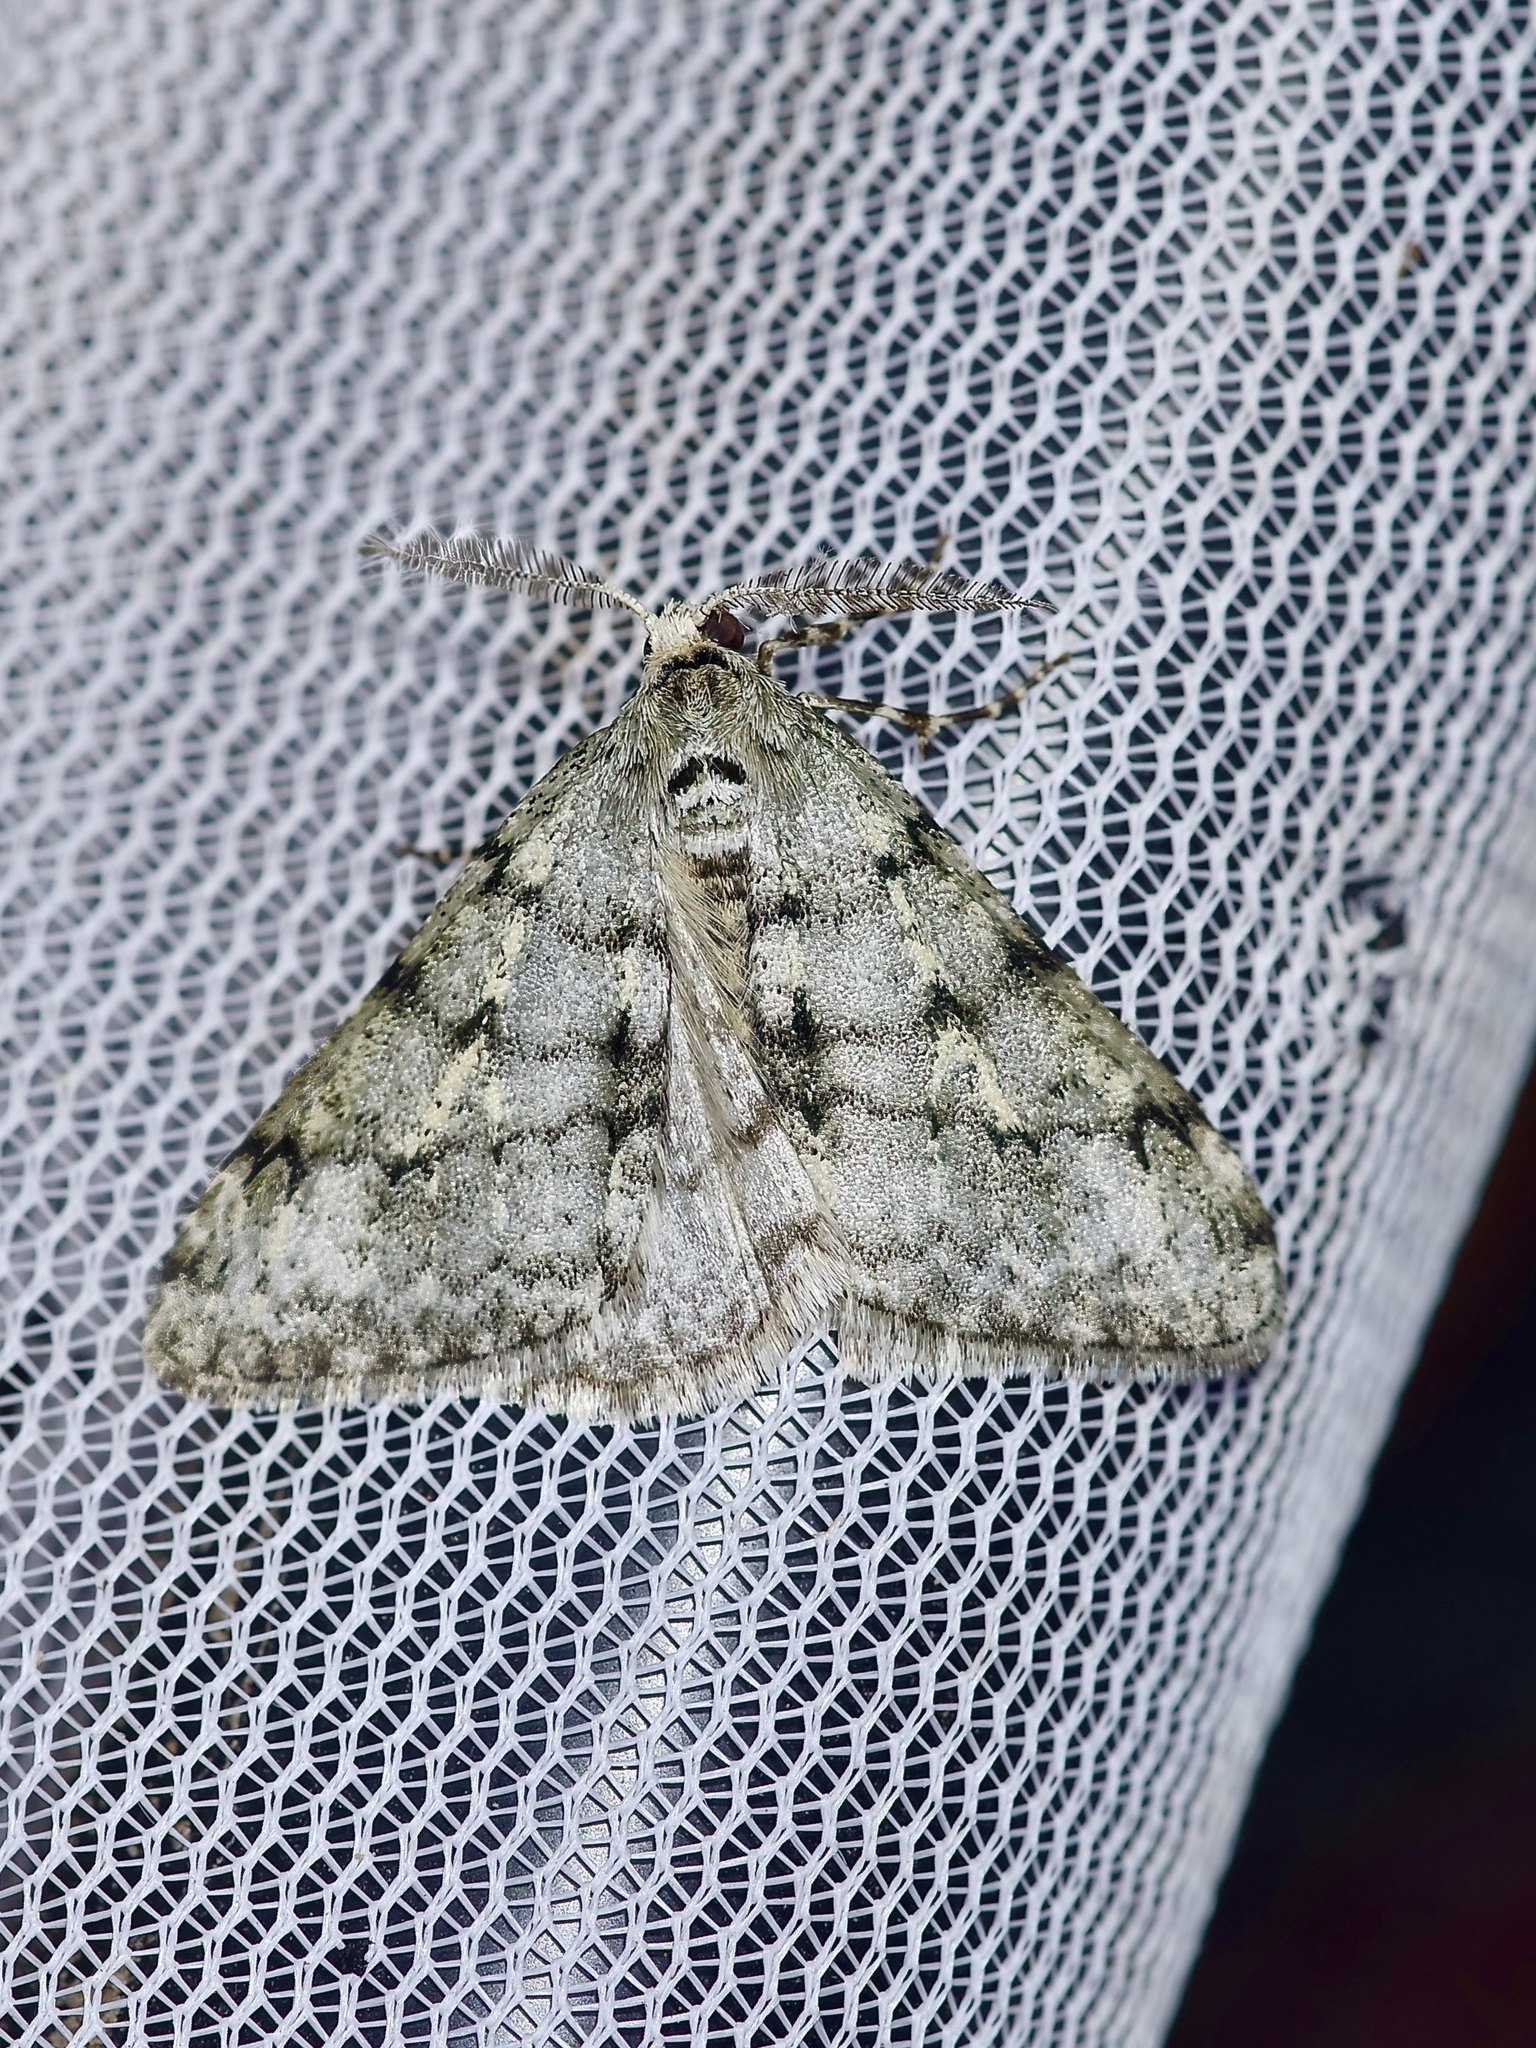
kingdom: Animalia
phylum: Arthropoda
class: Insecta
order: Lepidoptera
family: Geometridae
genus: Phigalia
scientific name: Phigalia strigataria
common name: Small phigalia
